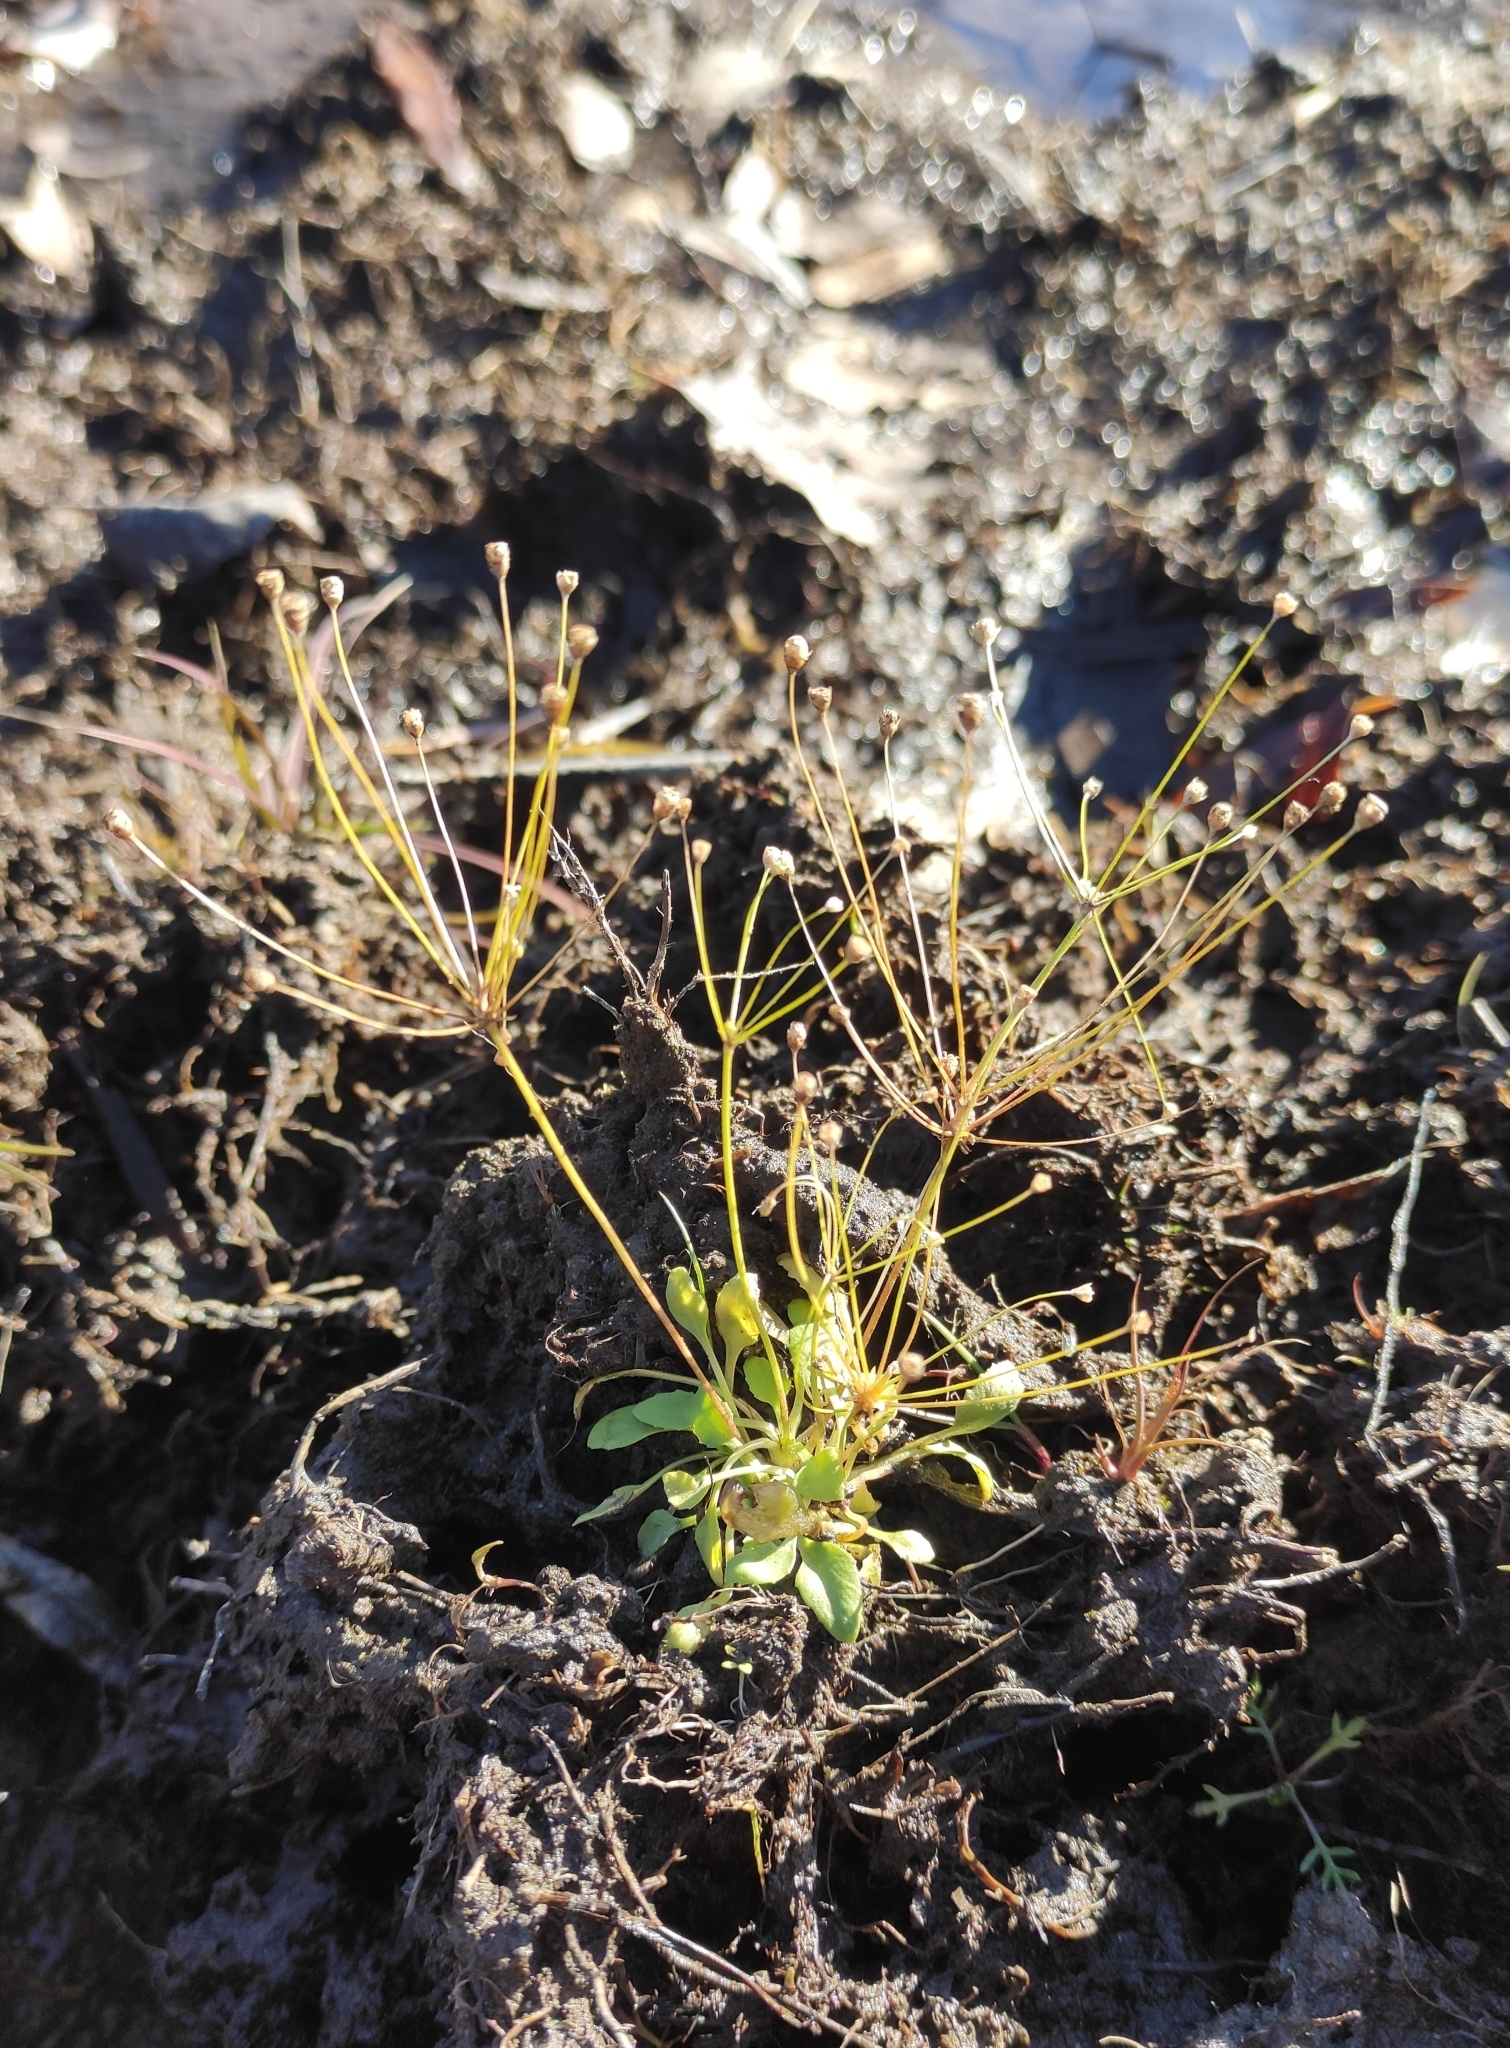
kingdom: Plantae
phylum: Tracheophyta
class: Magnoliopsida
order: Ericales
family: Primulaceae
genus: Androsace
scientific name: Androsace filiformis
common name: Filiform rock jasmine
